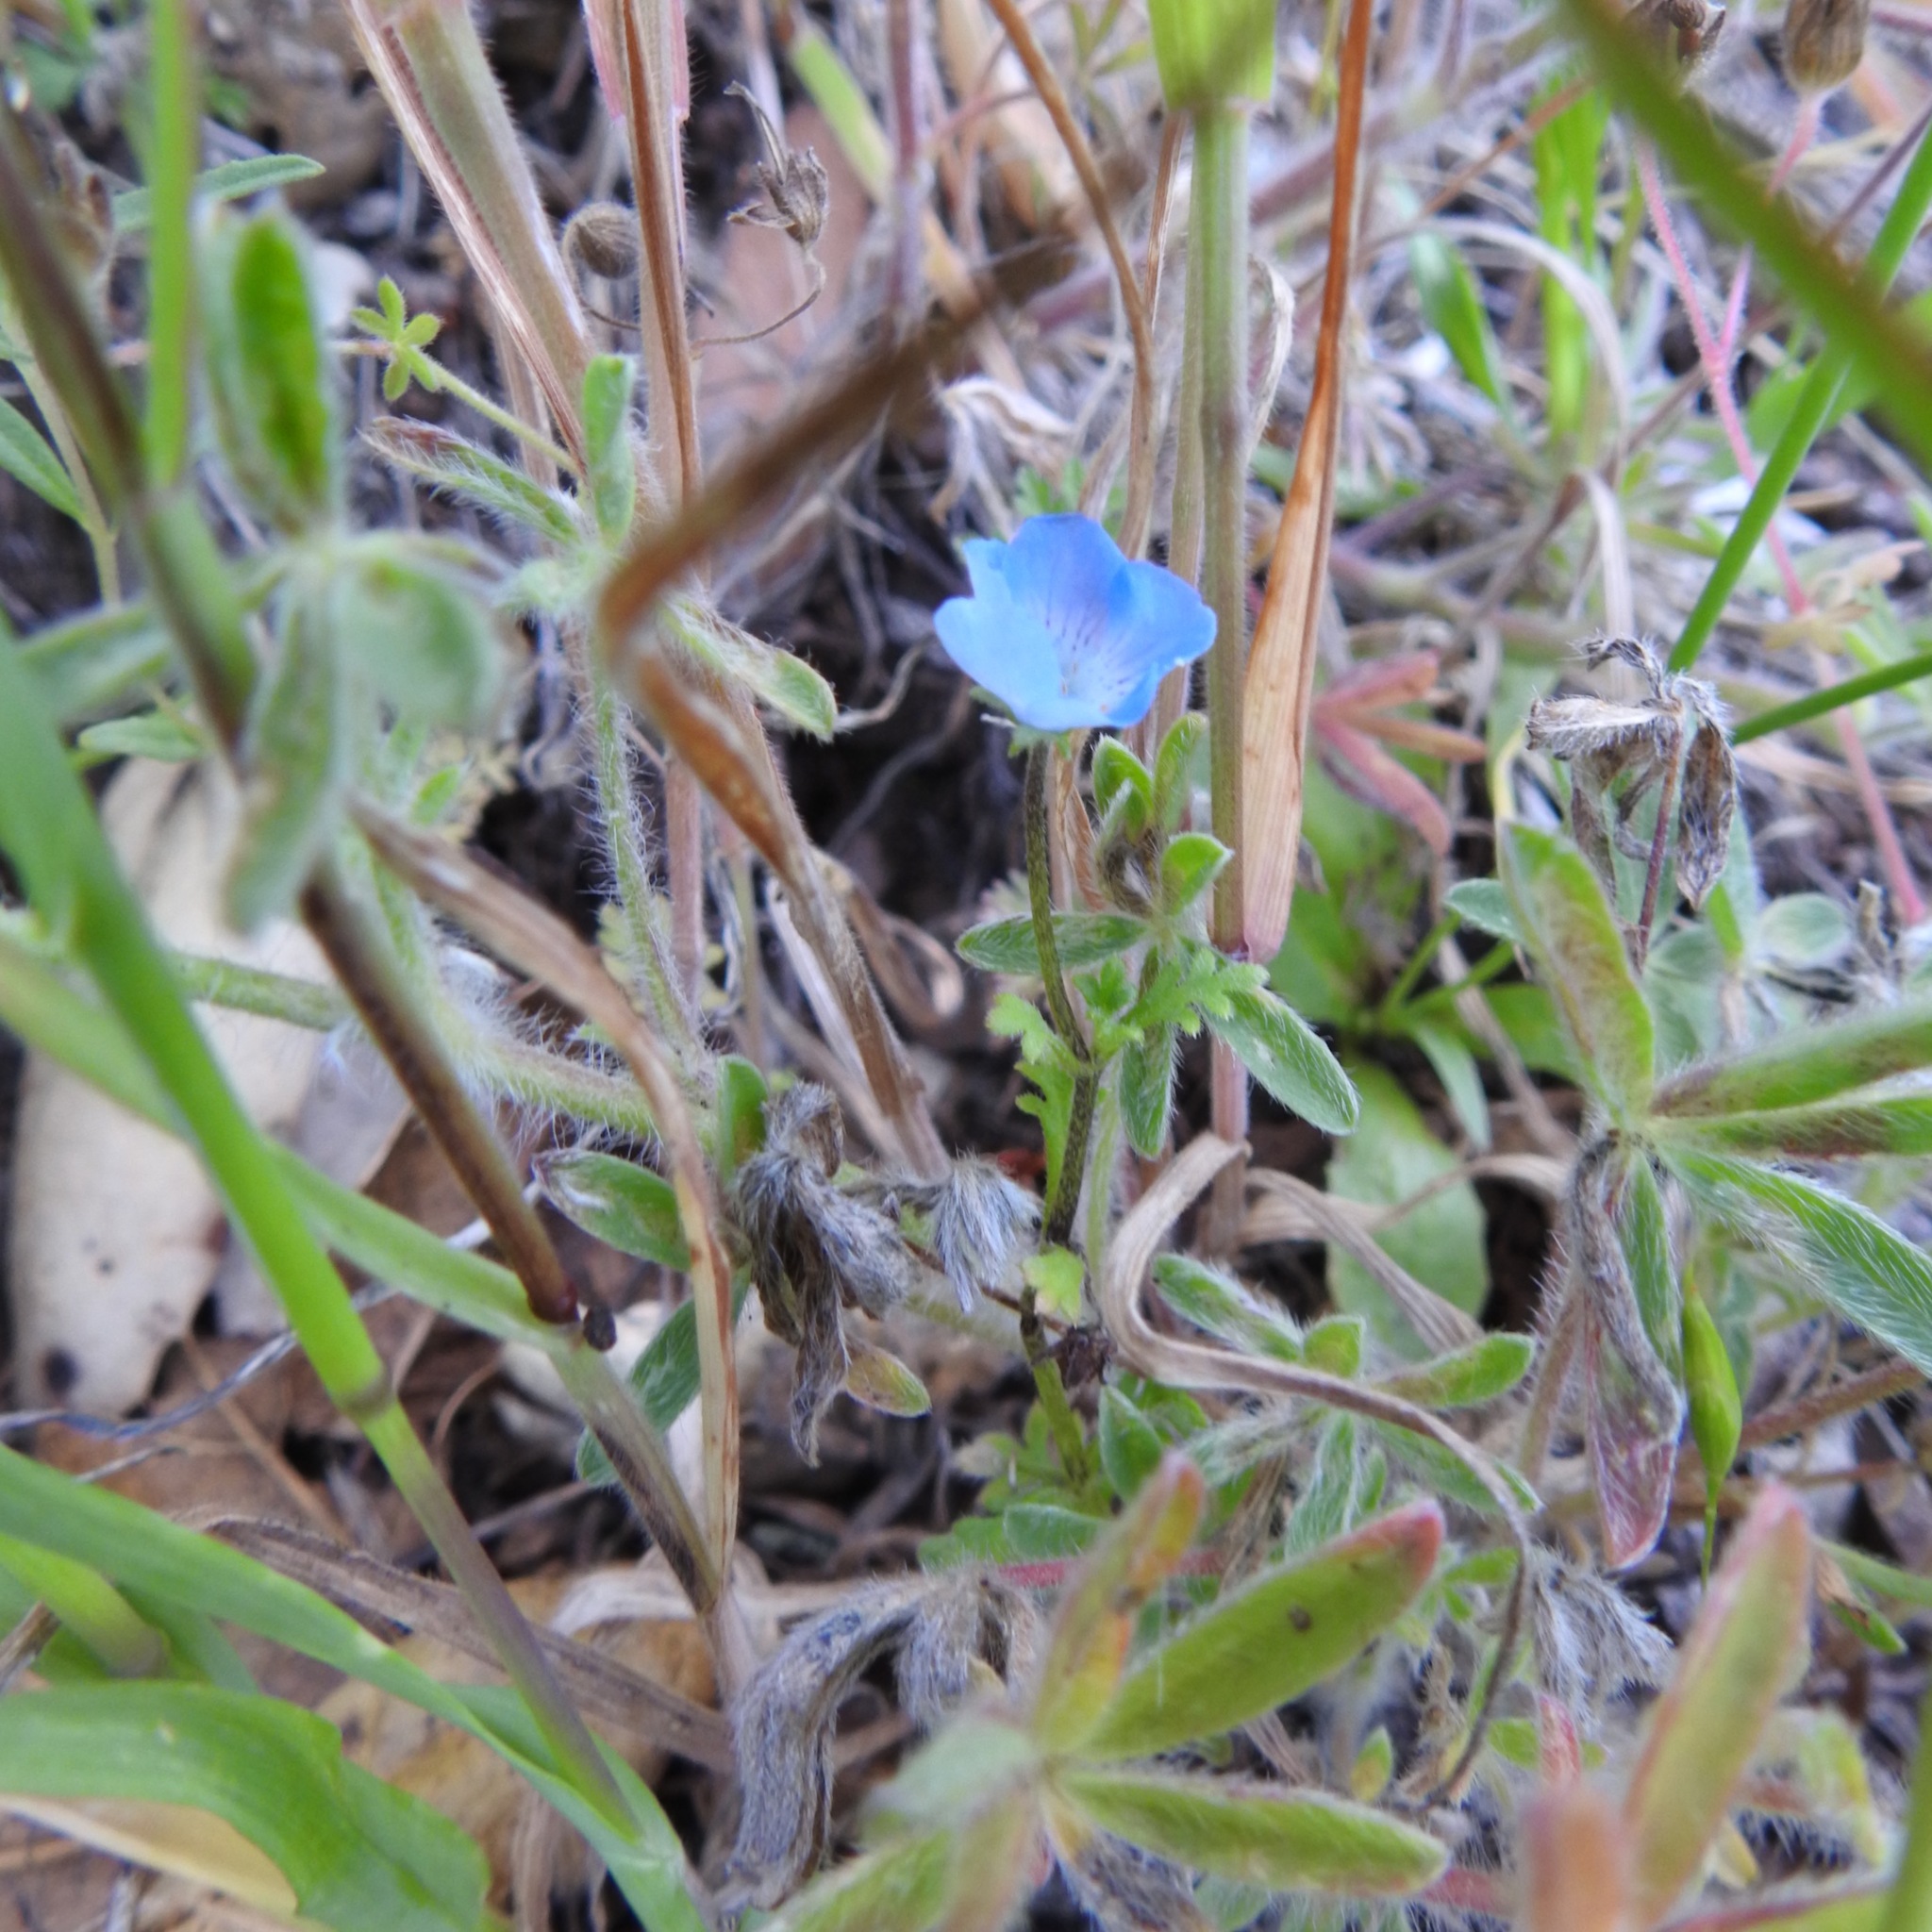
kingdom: Plantae
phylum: Tracheophyta
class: Magnoliopsida
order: Boraginales
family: Hydrophyllaceae
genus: Nemophila
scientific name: Nemophila menziesii
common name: Baby's-blue-eyes
